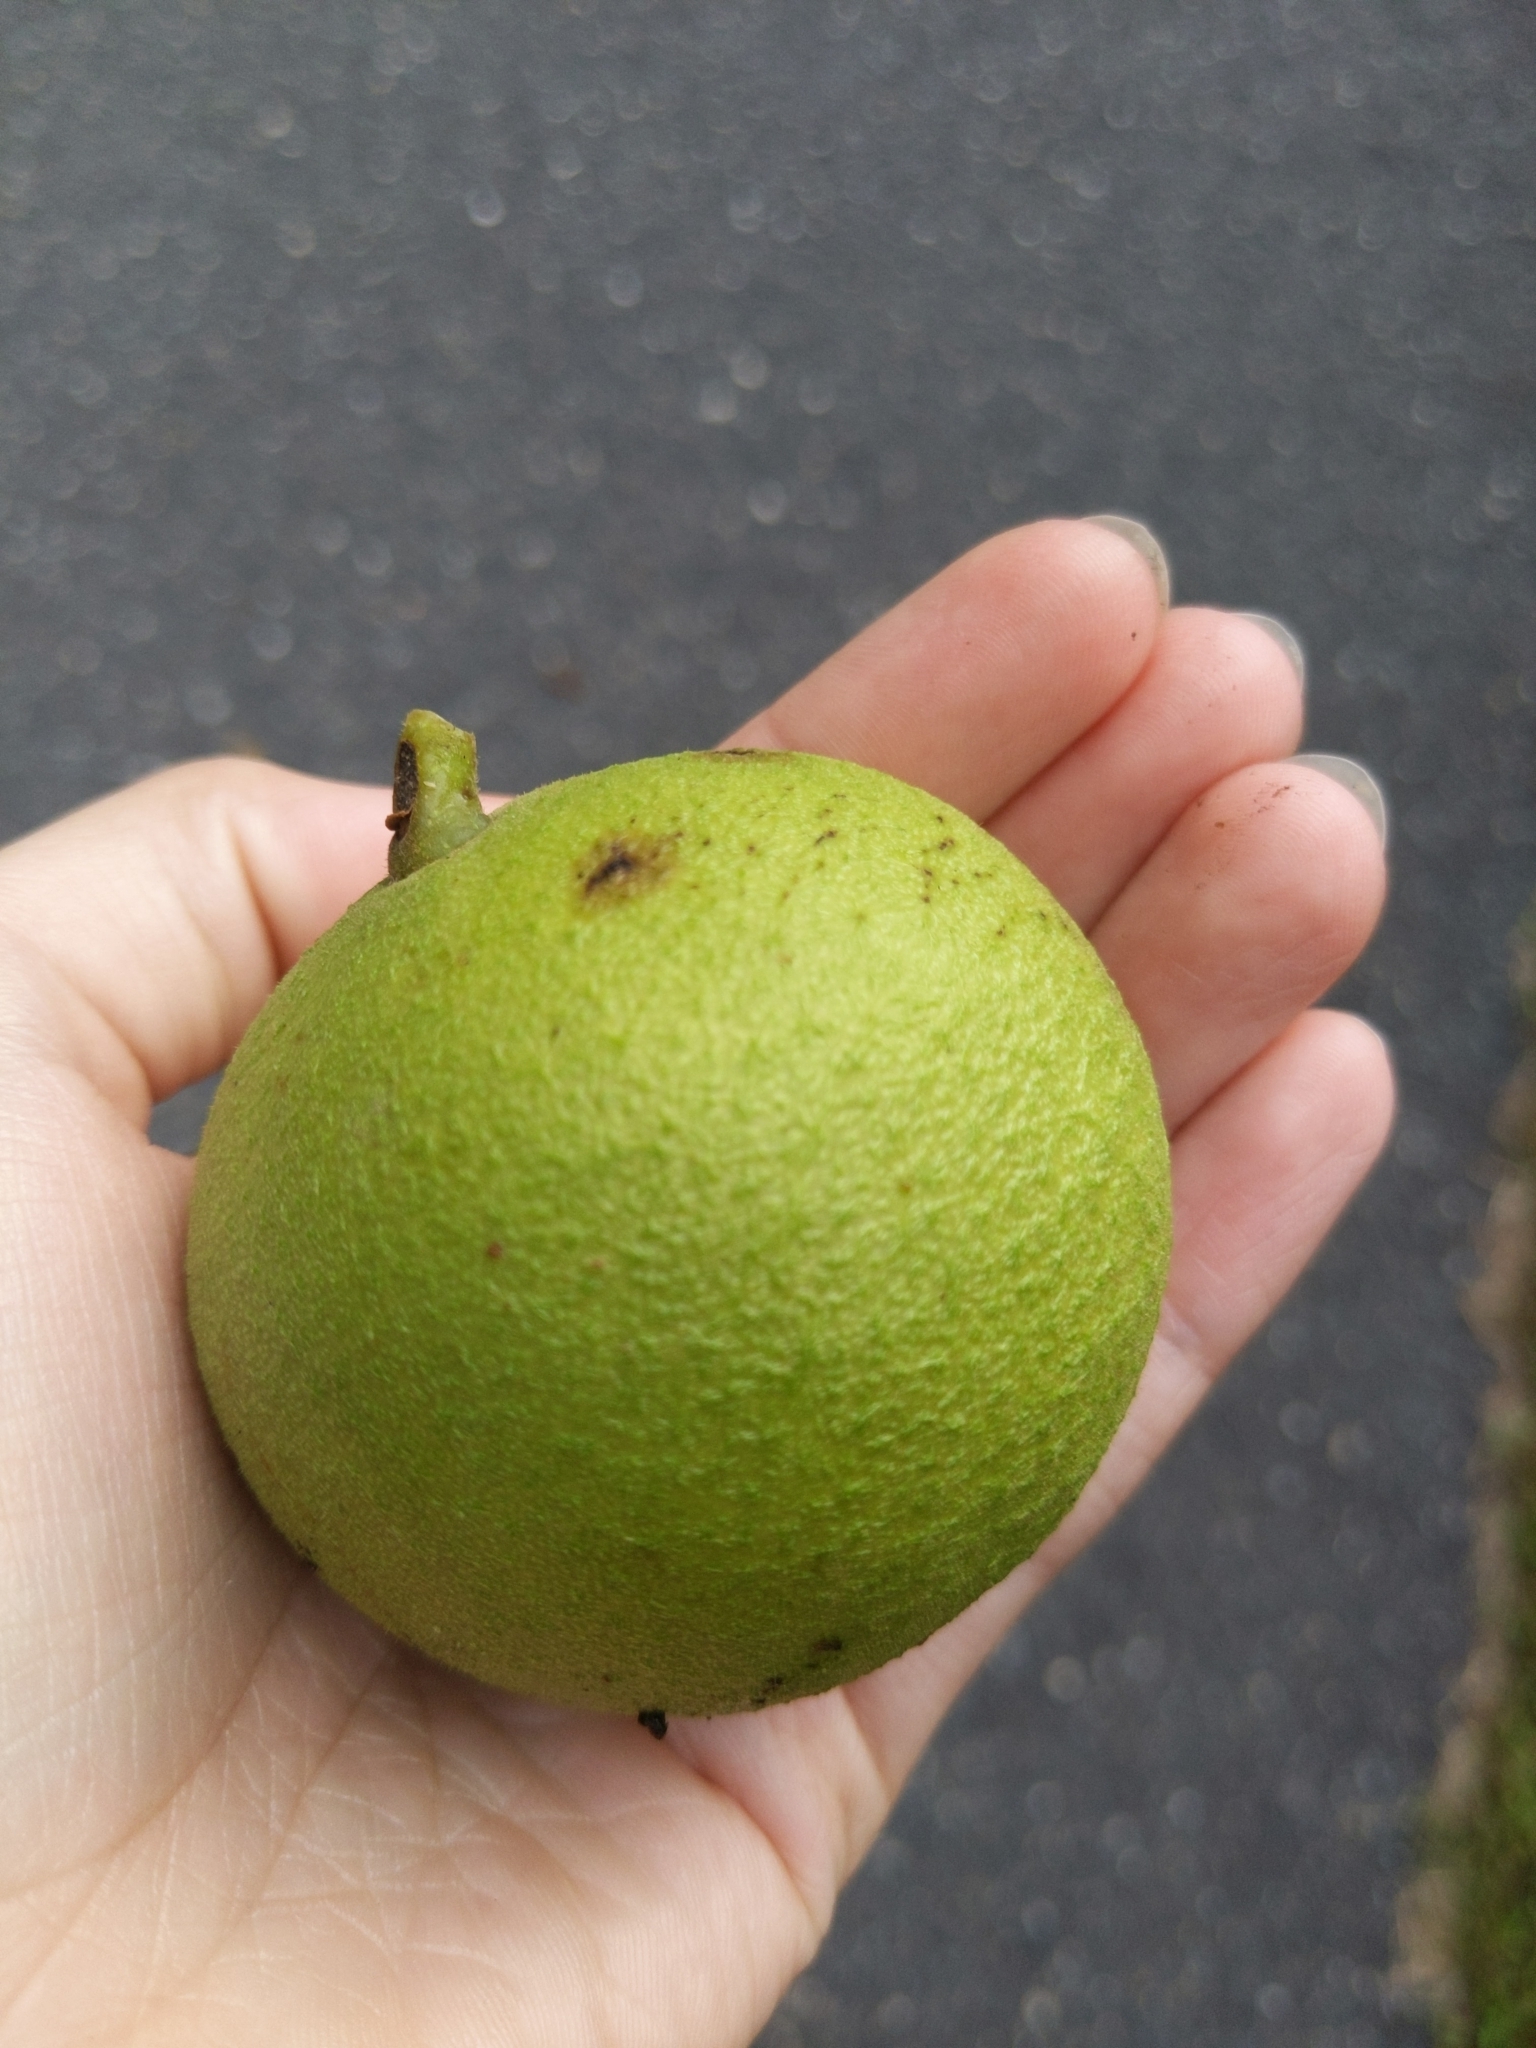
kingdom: Plantae
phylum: Tracheophyta
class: Magnoliopsida
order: Fagales
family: Juglandaceae
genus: Juglans
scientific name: Juglans nigra
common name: Black walnut
